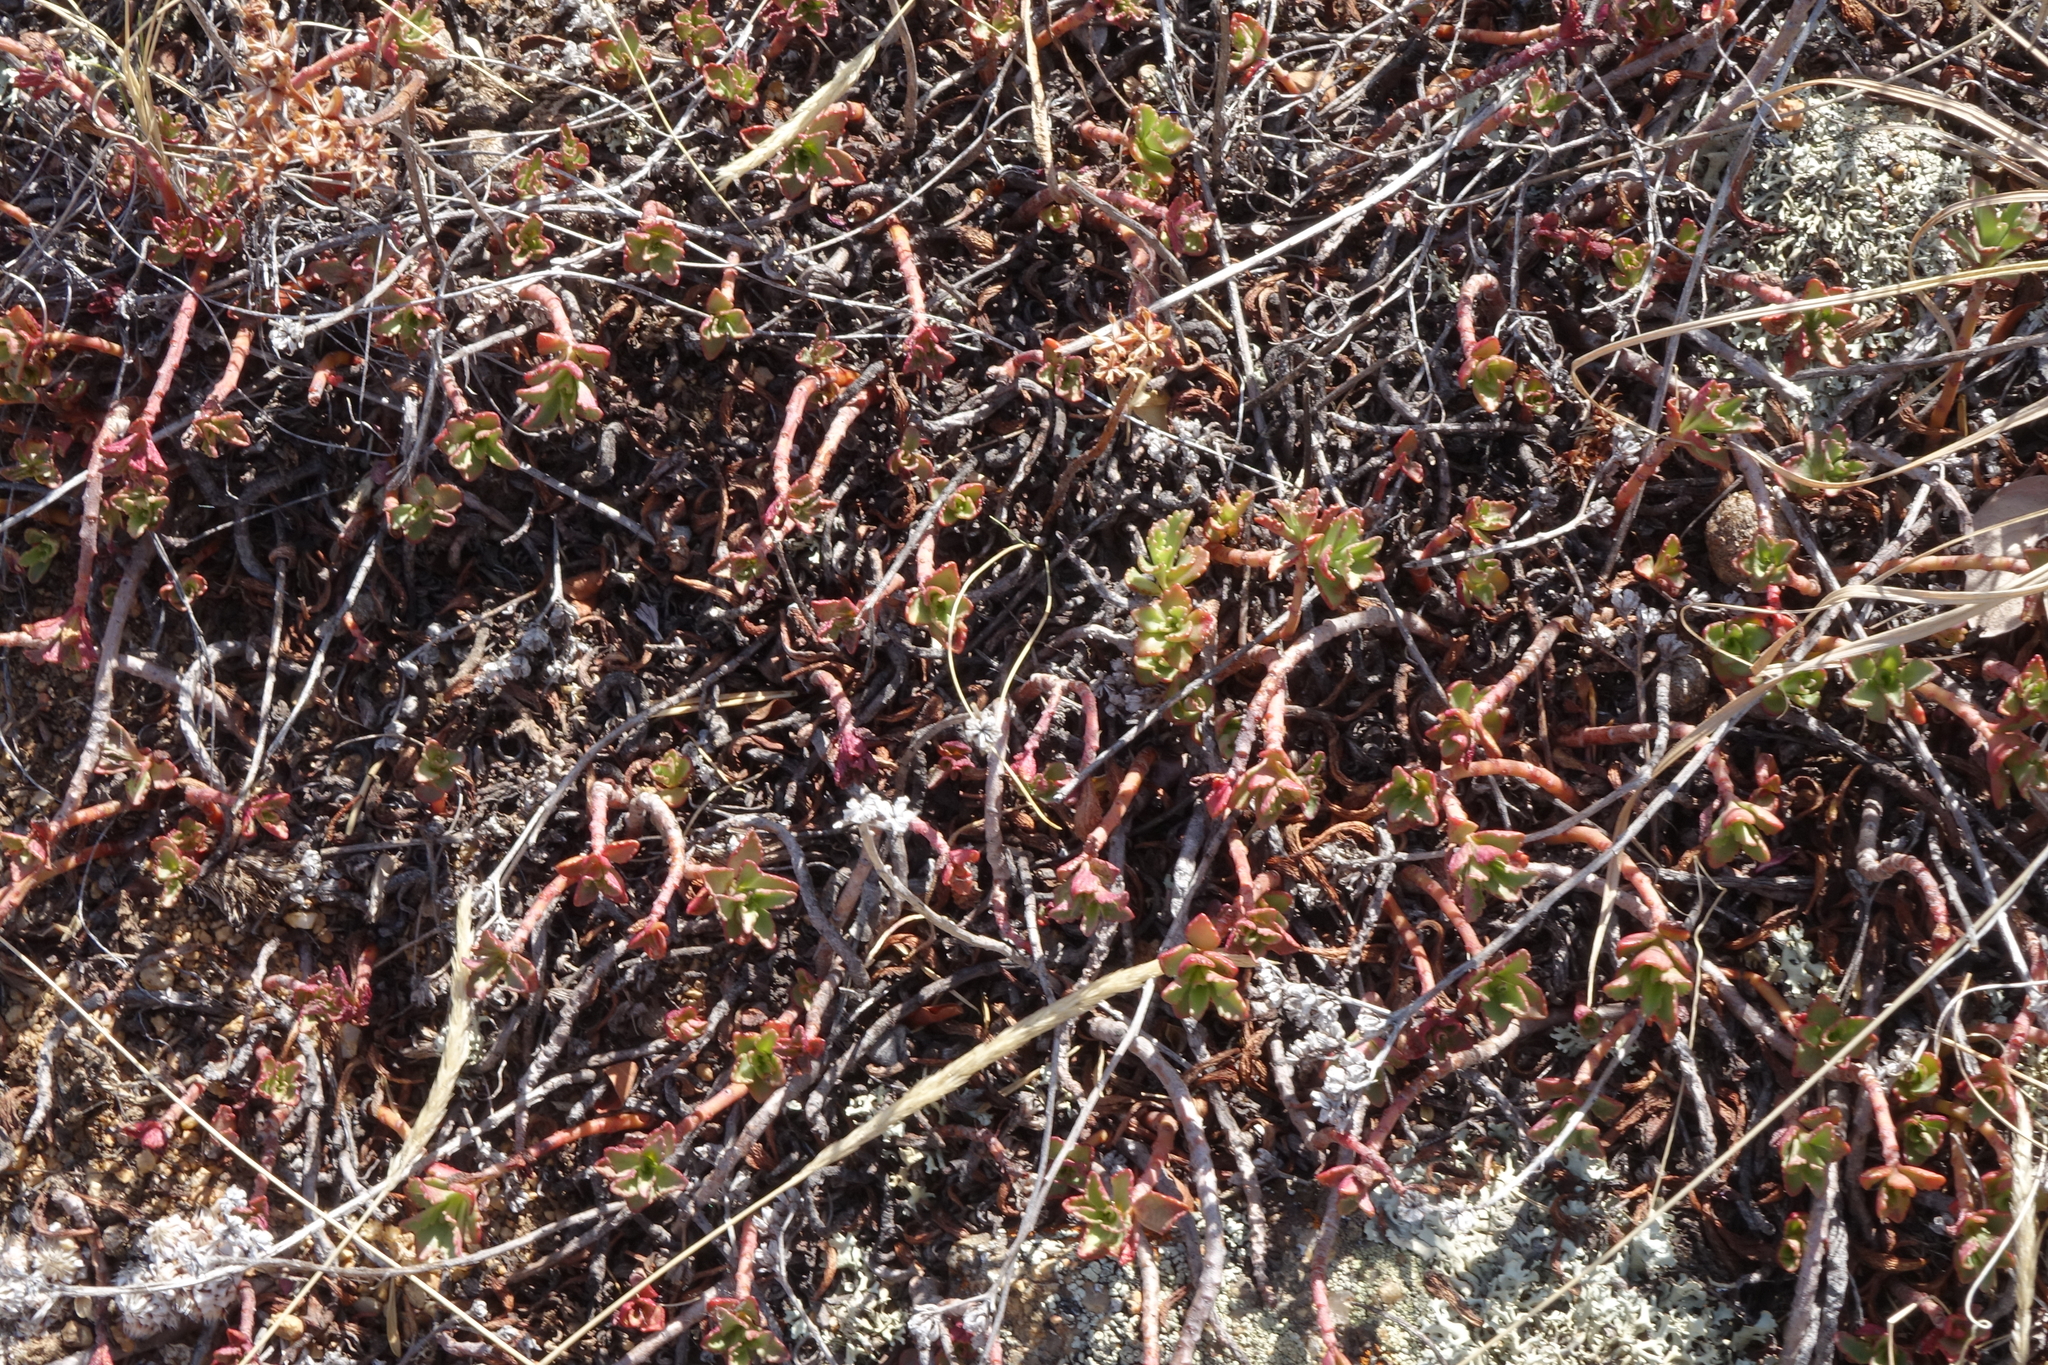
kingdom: Plantae
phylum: Tracheophyta
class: Magnoliopsida
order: Saxifragales
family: Crassulaceae
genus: Phedimus
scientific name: Phedimus hybridus
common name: Hybrid stonecrop
